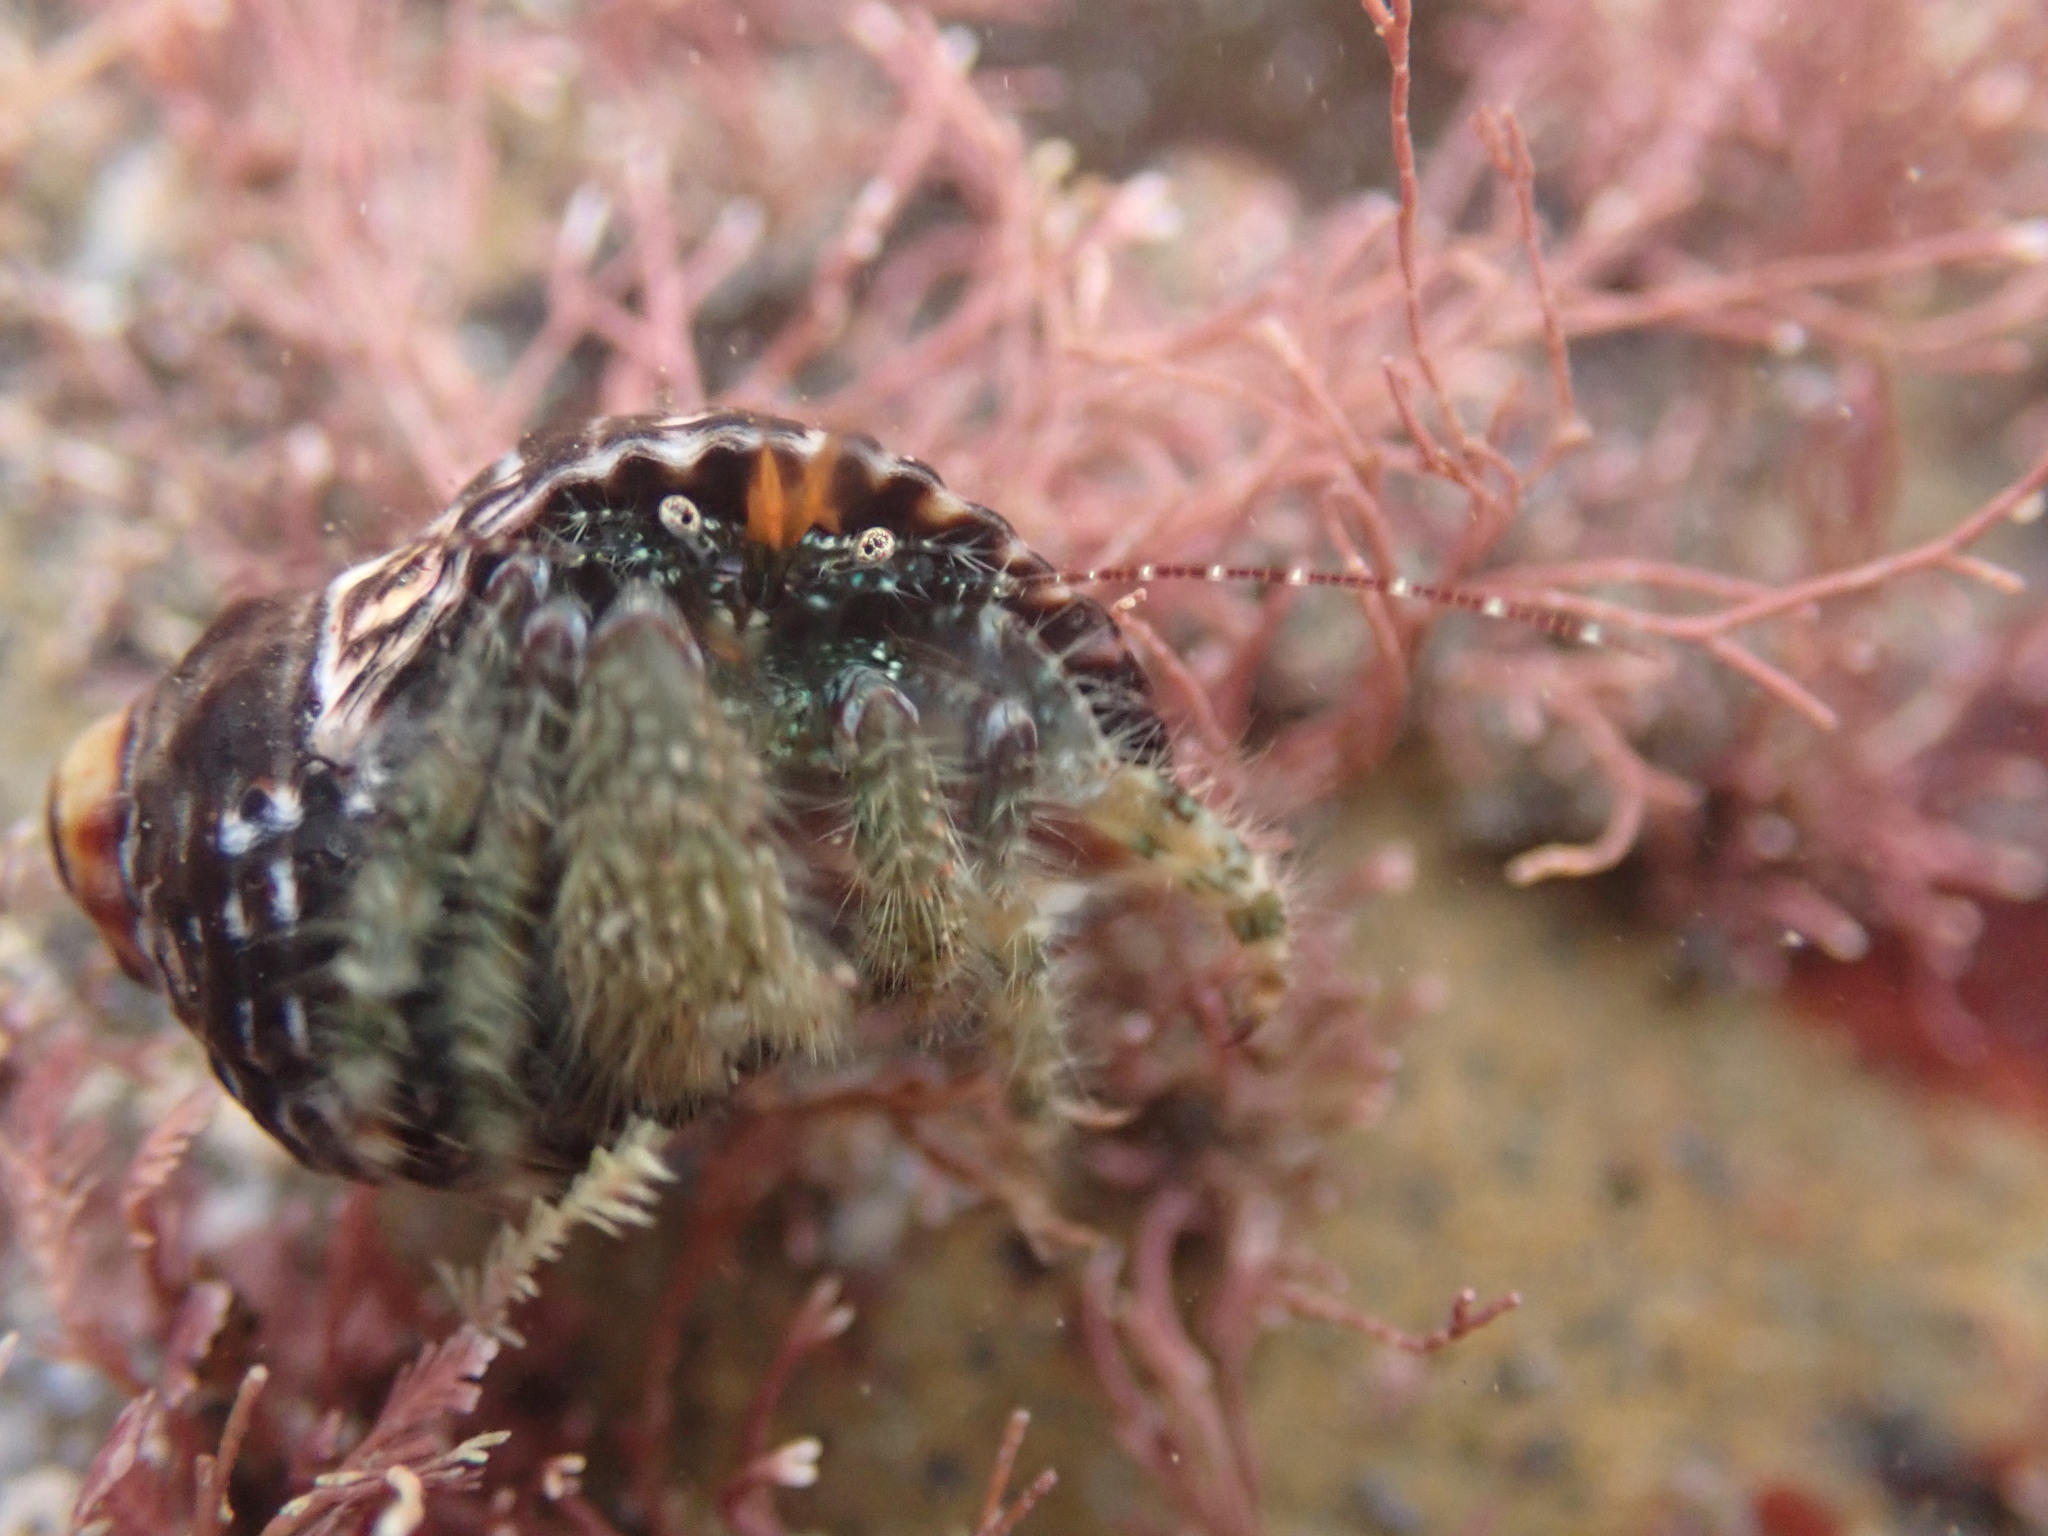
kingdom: Animalia
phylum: Arthropoda
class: Malacostraca
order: Decapoda
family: Paguridae
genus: Pagurus
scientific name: Pagurus traversi
